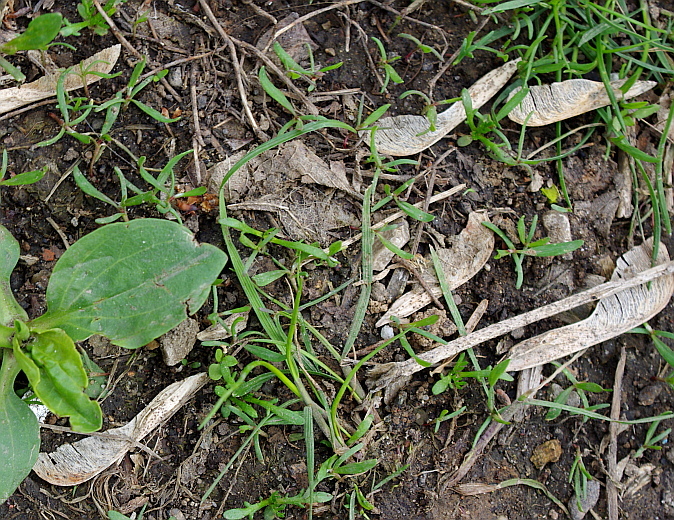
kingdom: Plantae
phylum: Tracheophyta
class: Magnoliopsida
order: Sapindales
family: Sapindaceae
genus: Acer
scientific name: Acer negundo
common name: Ashleaf maple
